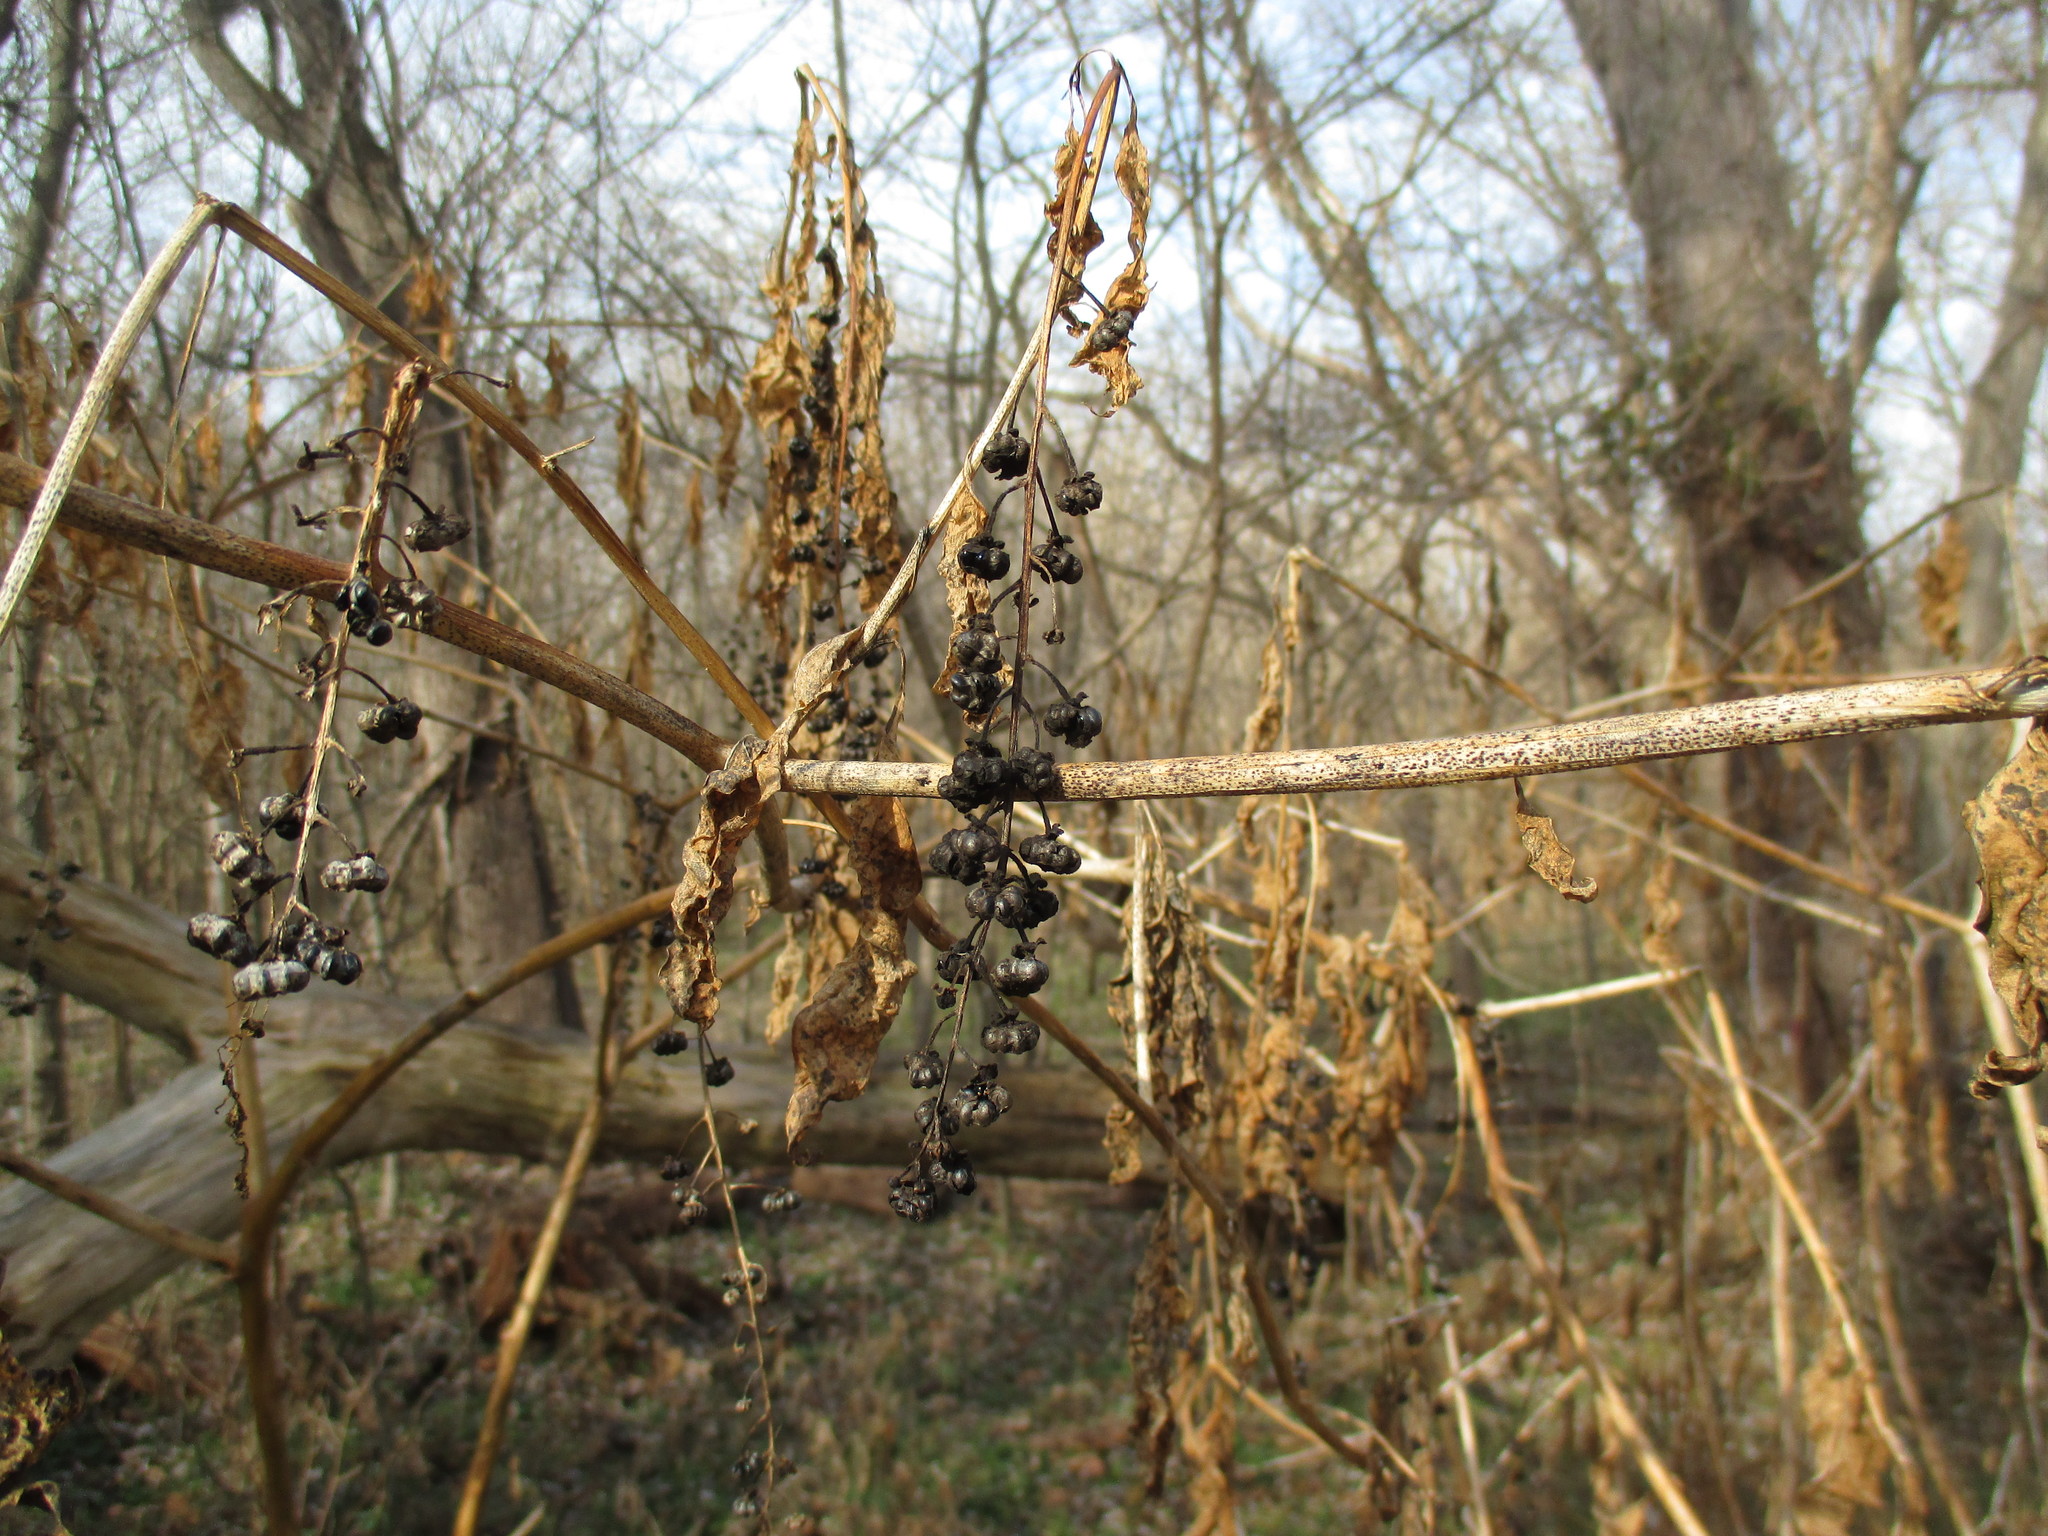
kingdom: Plantae
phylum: Tracheophyta
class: Magnoliopsida
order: Caryophyllales
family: Phytolaccaceae
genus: Phytolacca
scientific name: Phytolacca americana
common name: American pokeweed
